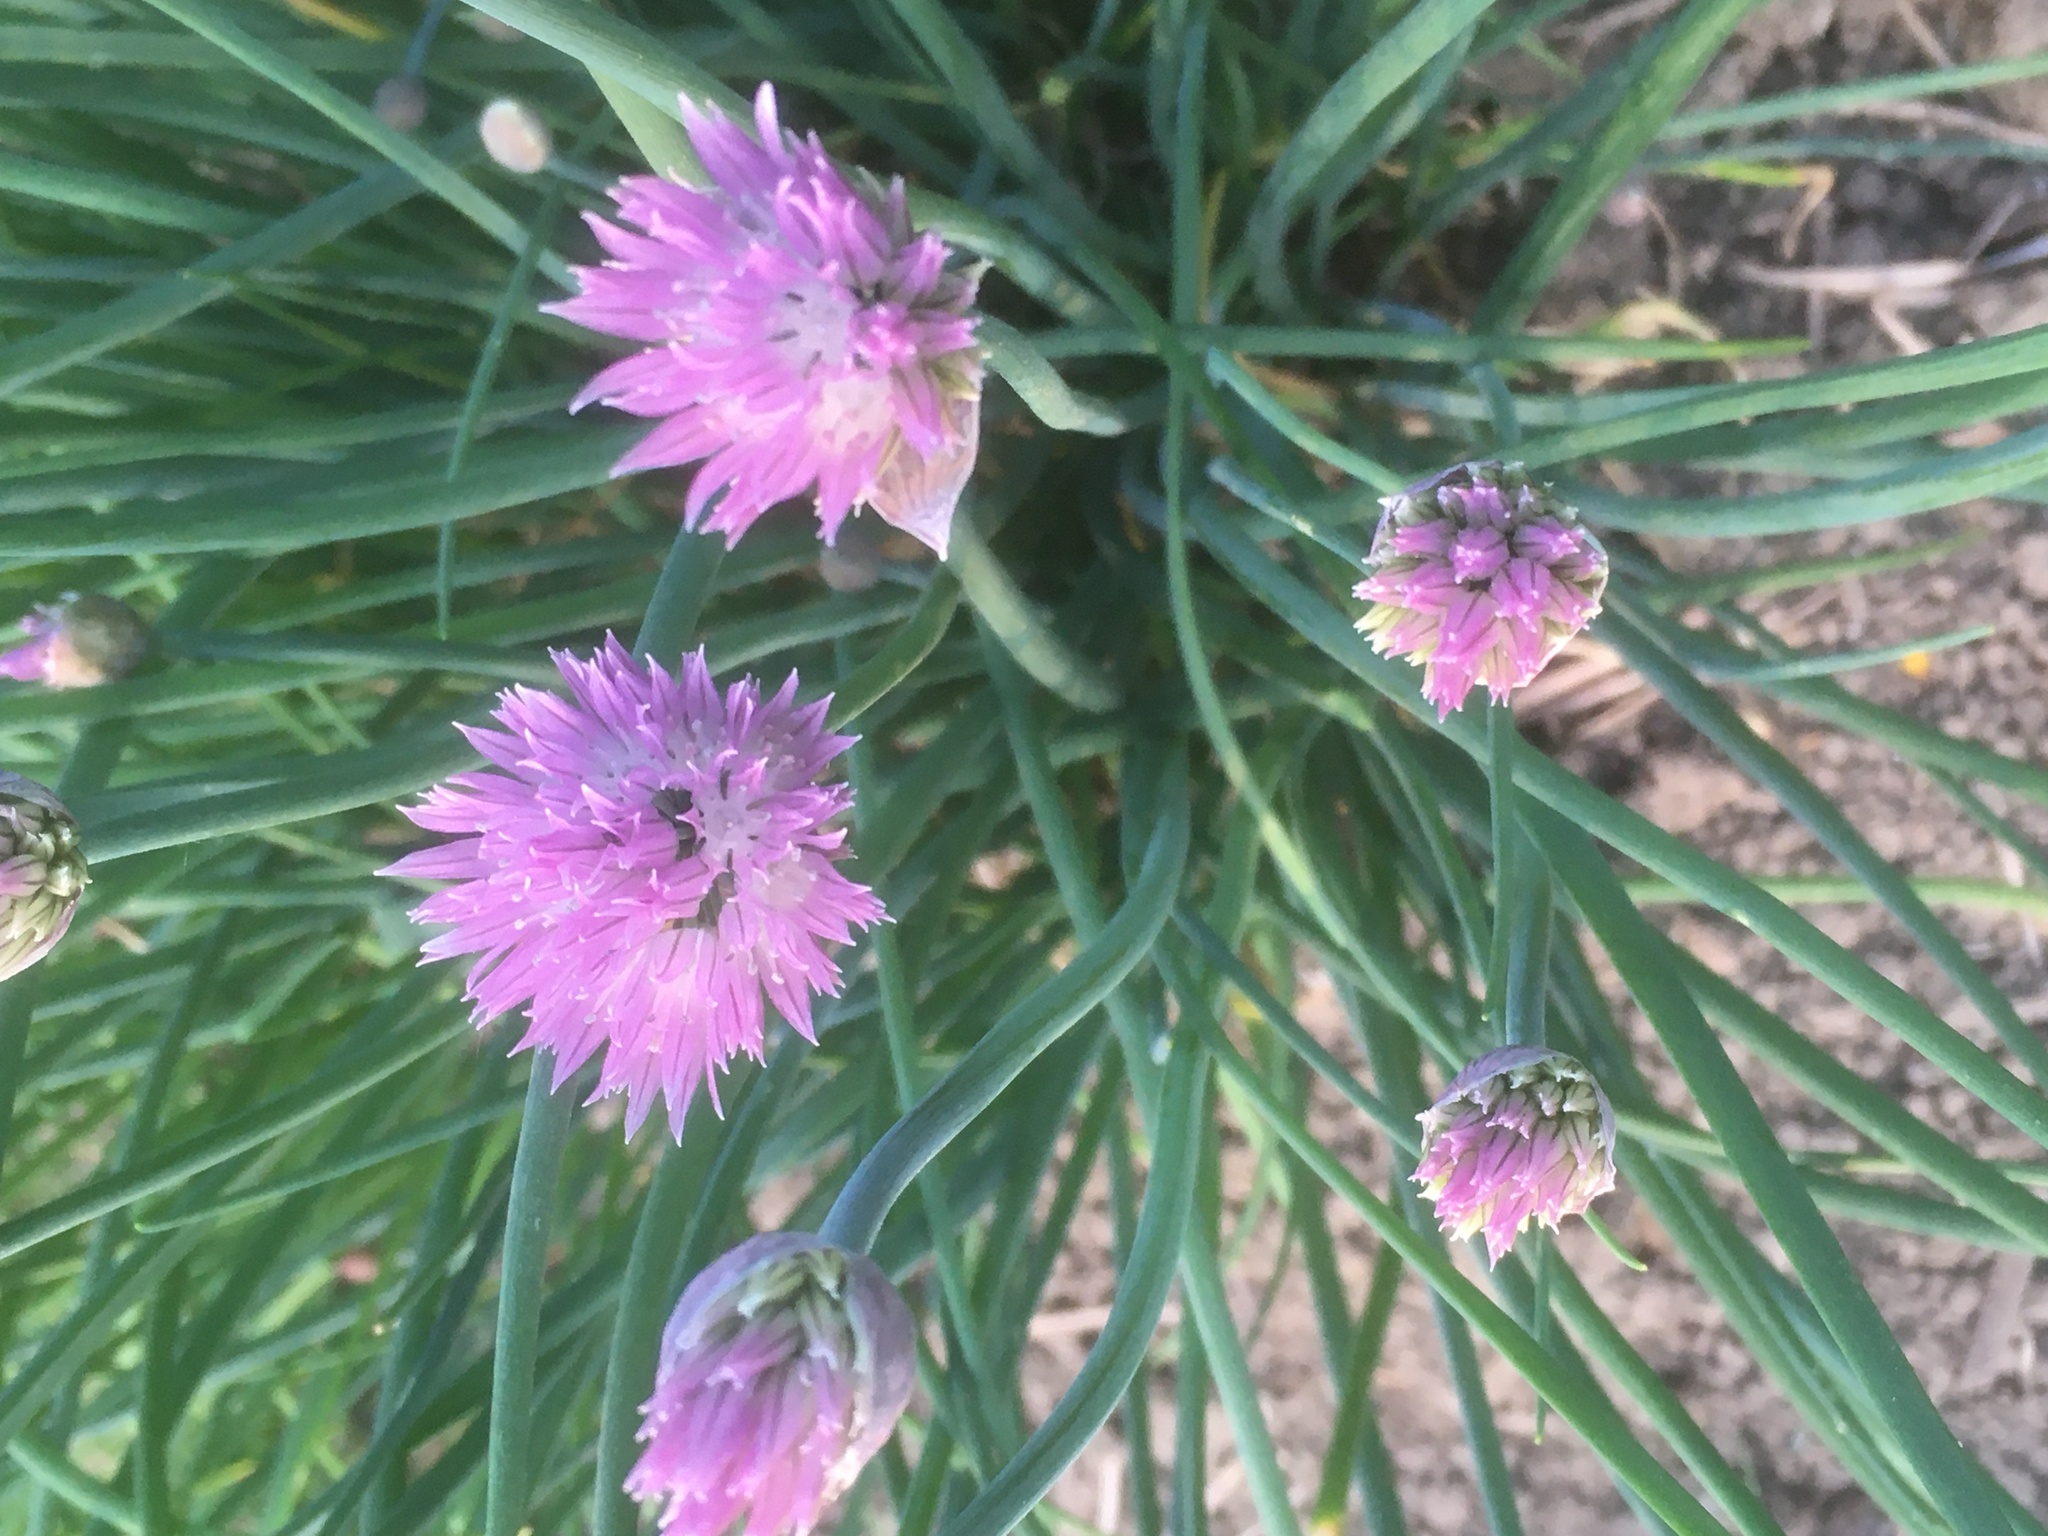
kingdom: Plantae
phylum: Tracheophyta
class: Liliopsida
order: Asparagales
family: Amaryllidaceae
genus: Allium
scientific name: Allium schoenoprasum
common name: Chives
